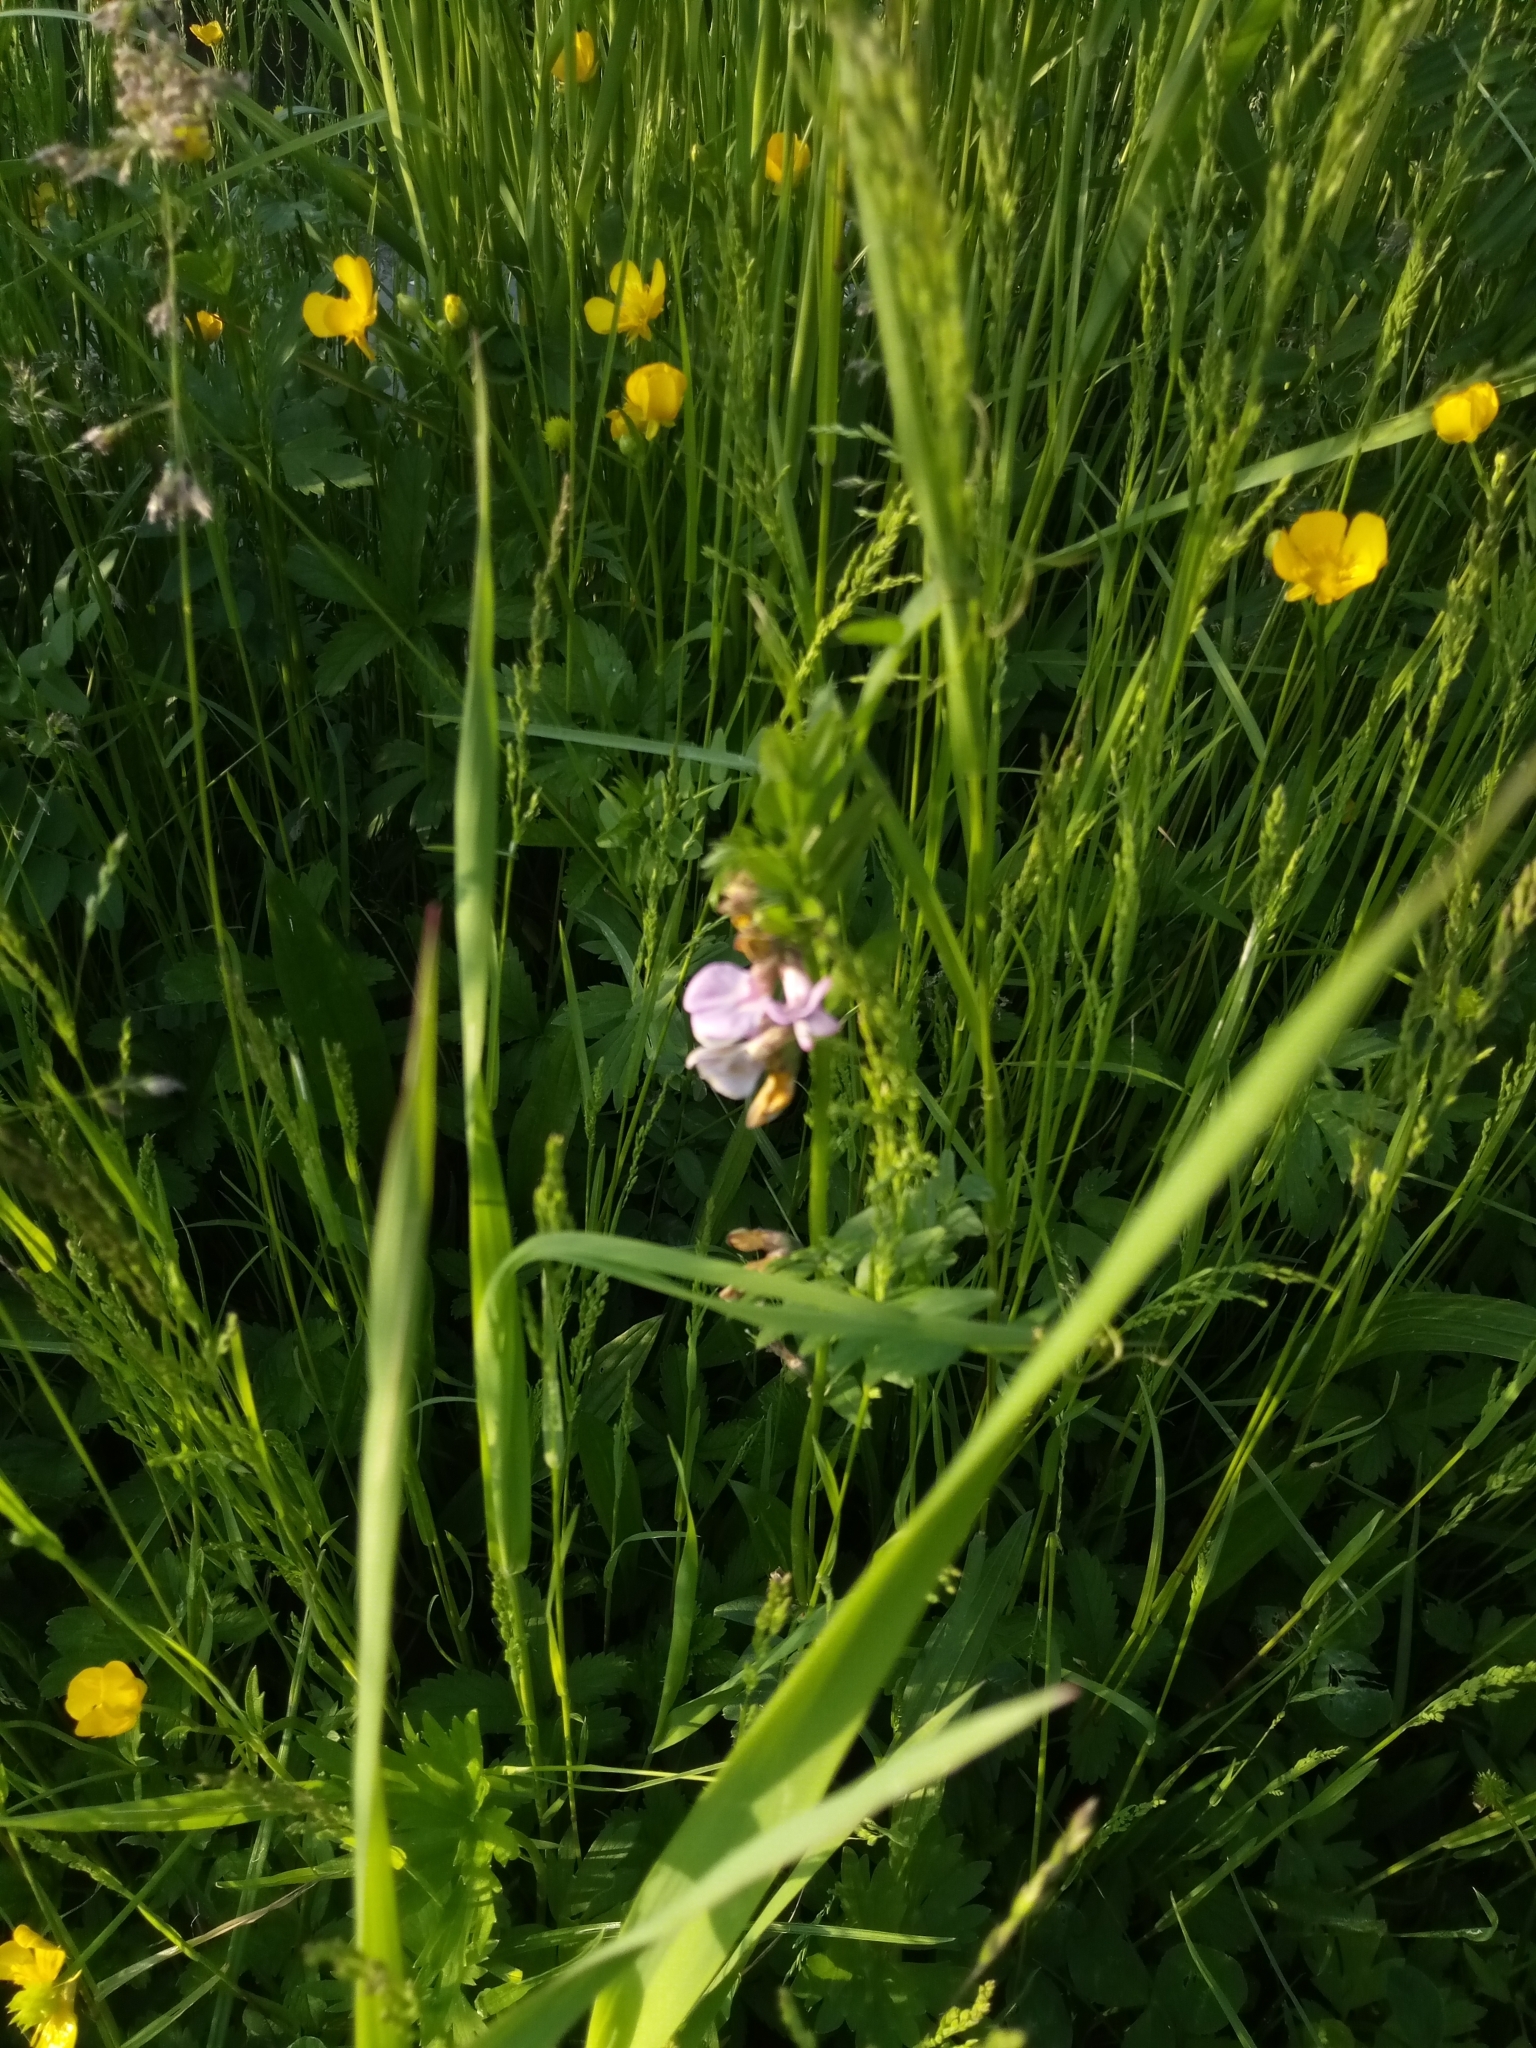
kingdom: Plantae
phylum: Tracheophyta
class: Magnoliopsida
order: Fabales
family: Fabaceae
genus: Vicia
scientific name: Vicia sepium
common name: Bush vetch
